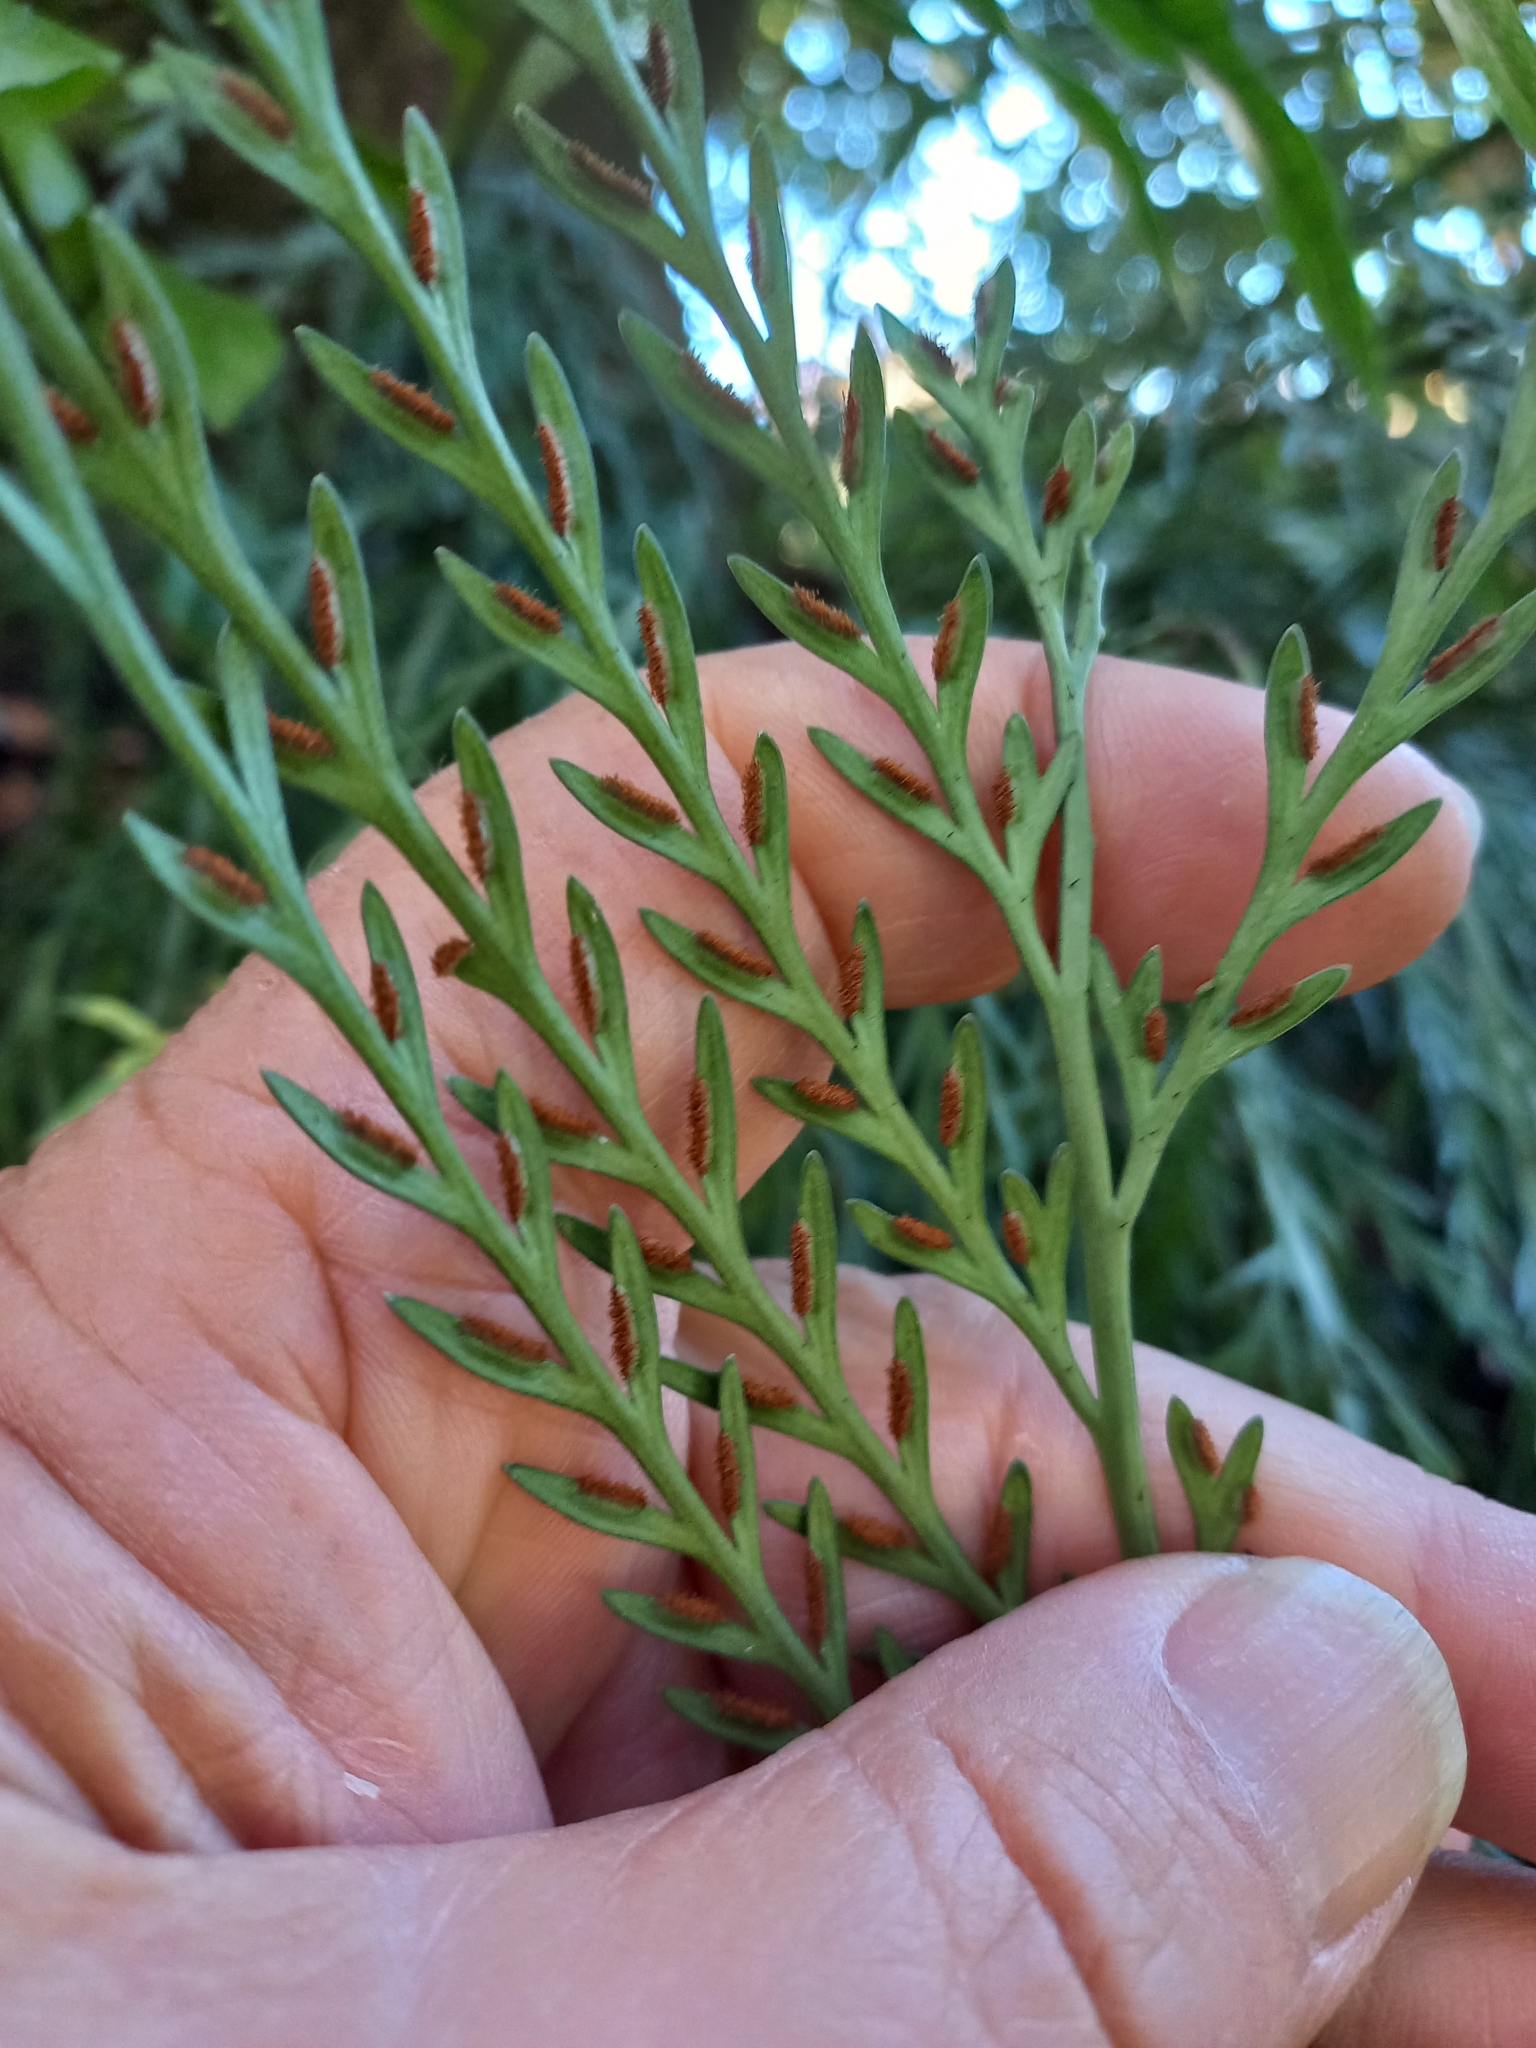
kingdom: Plantae
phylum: Tracheophyta
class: Polypodiopsida
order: Polypodiales
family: Aspleniaceae
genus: Asplenium
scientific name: Asplenium flaccidum
